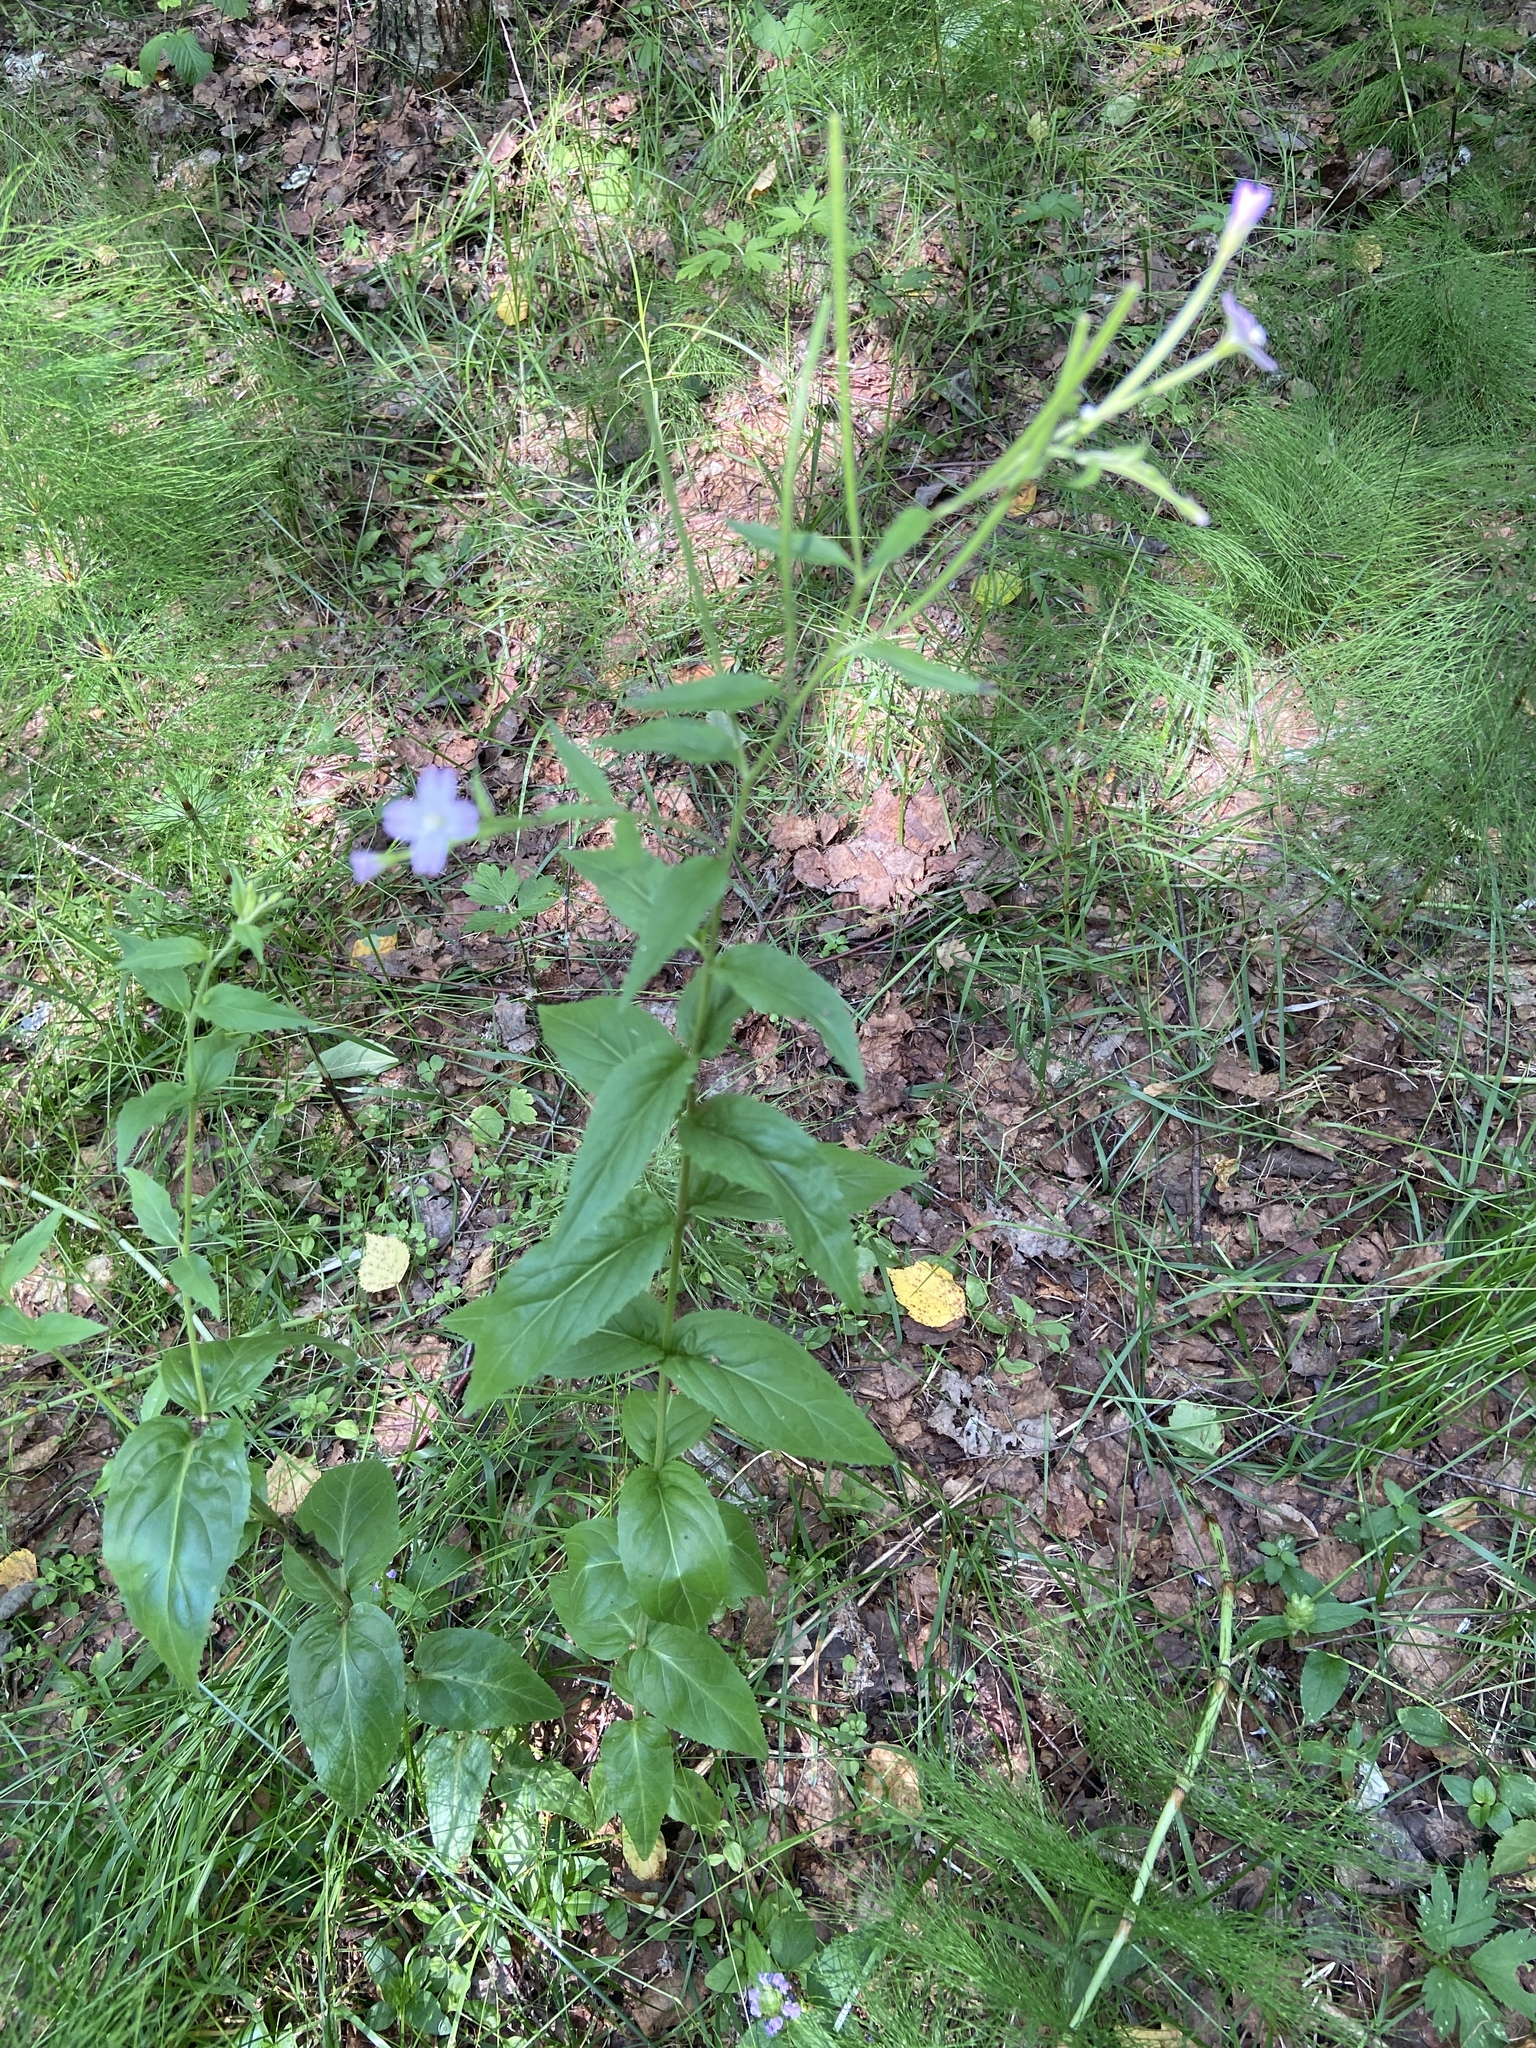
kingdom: Plantae
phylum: Tracheophyta
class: Magnoliopsida
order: Myrtales
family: Onagraceae
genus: Epilobium
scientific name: Epilobium montanum
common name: Broad-leaved willowherb
